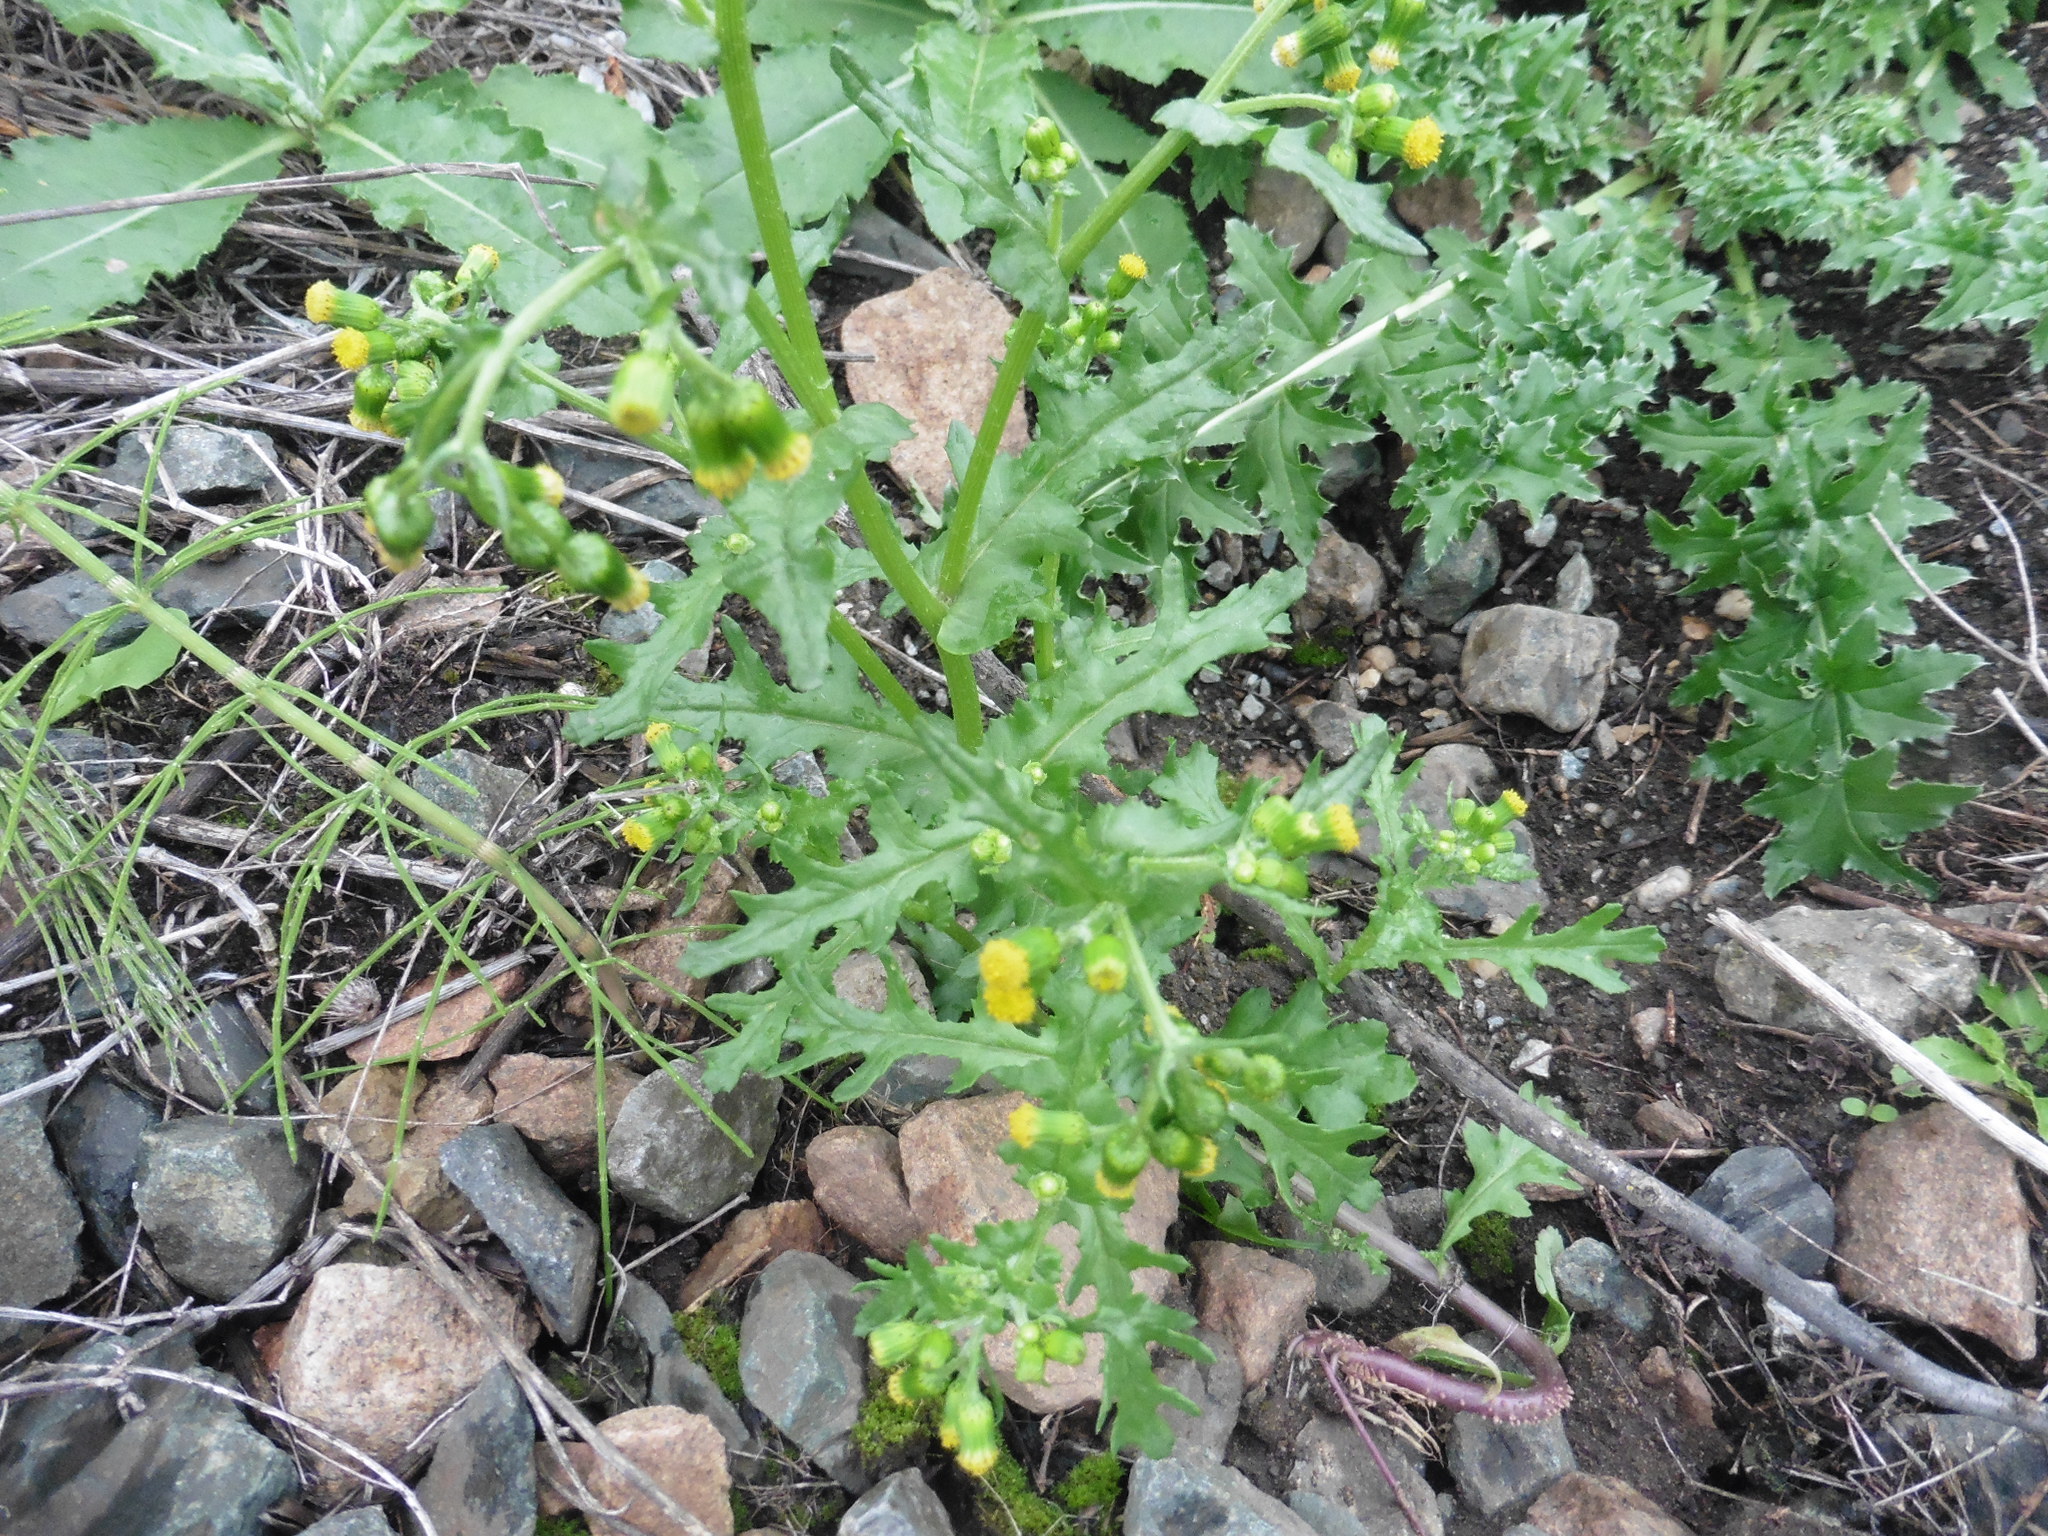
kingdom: Plantae
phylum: Tracheophyta
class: Magnoliopsida
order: Asterales
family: Asteraceae
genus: Senecio
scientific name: Senecio vulgaris
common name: Old-man-in-the-spring
